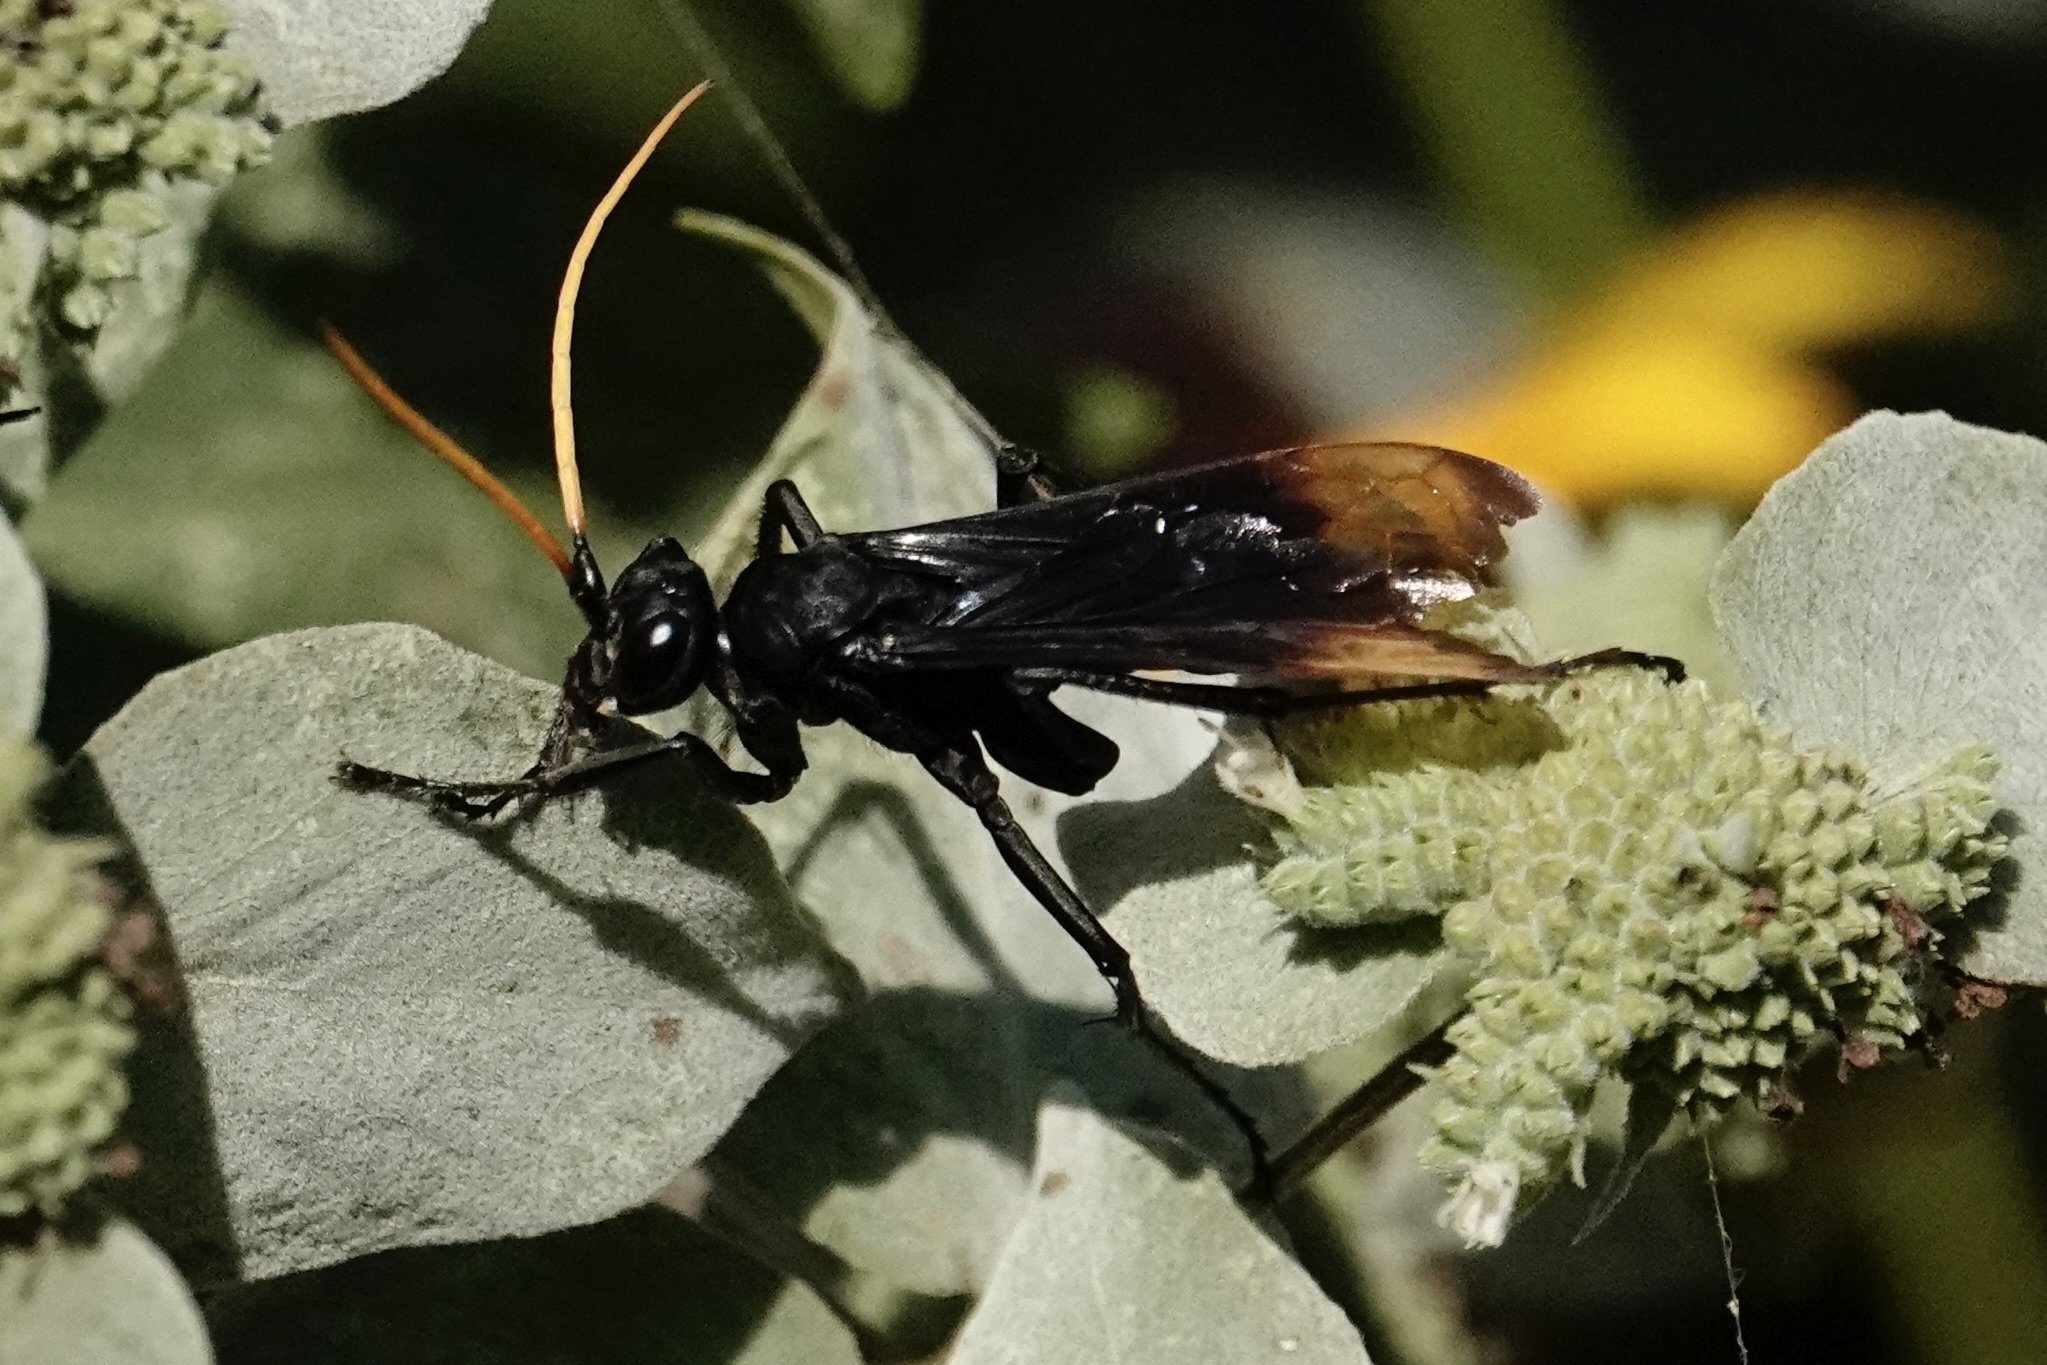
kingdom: Animalia
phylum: Arthropoda
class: Insecta
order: Hymenoptera
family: Pompilidae
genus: Entypus
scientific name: Entypus unifasciatus
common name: Eastern tawny-horned spider wasp
